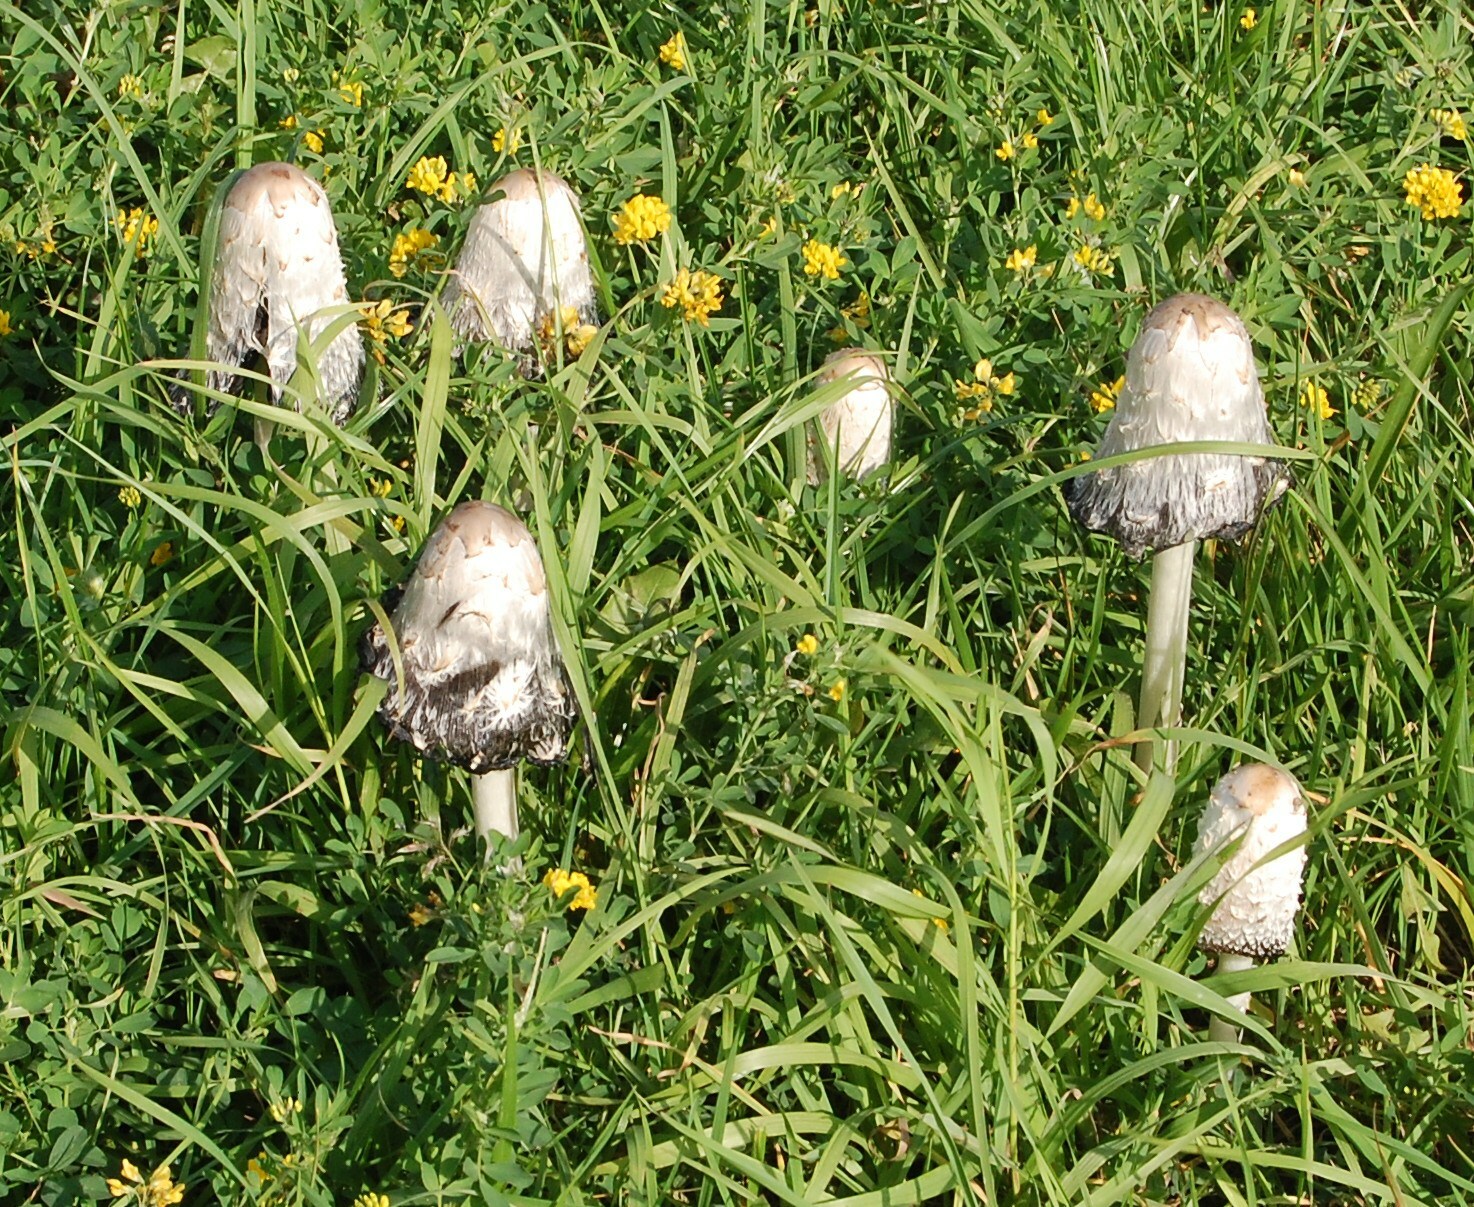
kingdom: Fungi
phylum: Basidiomycota
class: Agaricomycetes
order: Agaricales
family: Agaricaceae
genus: Coprinus
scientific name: Coprinus comatus
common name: Lawyer's wig
